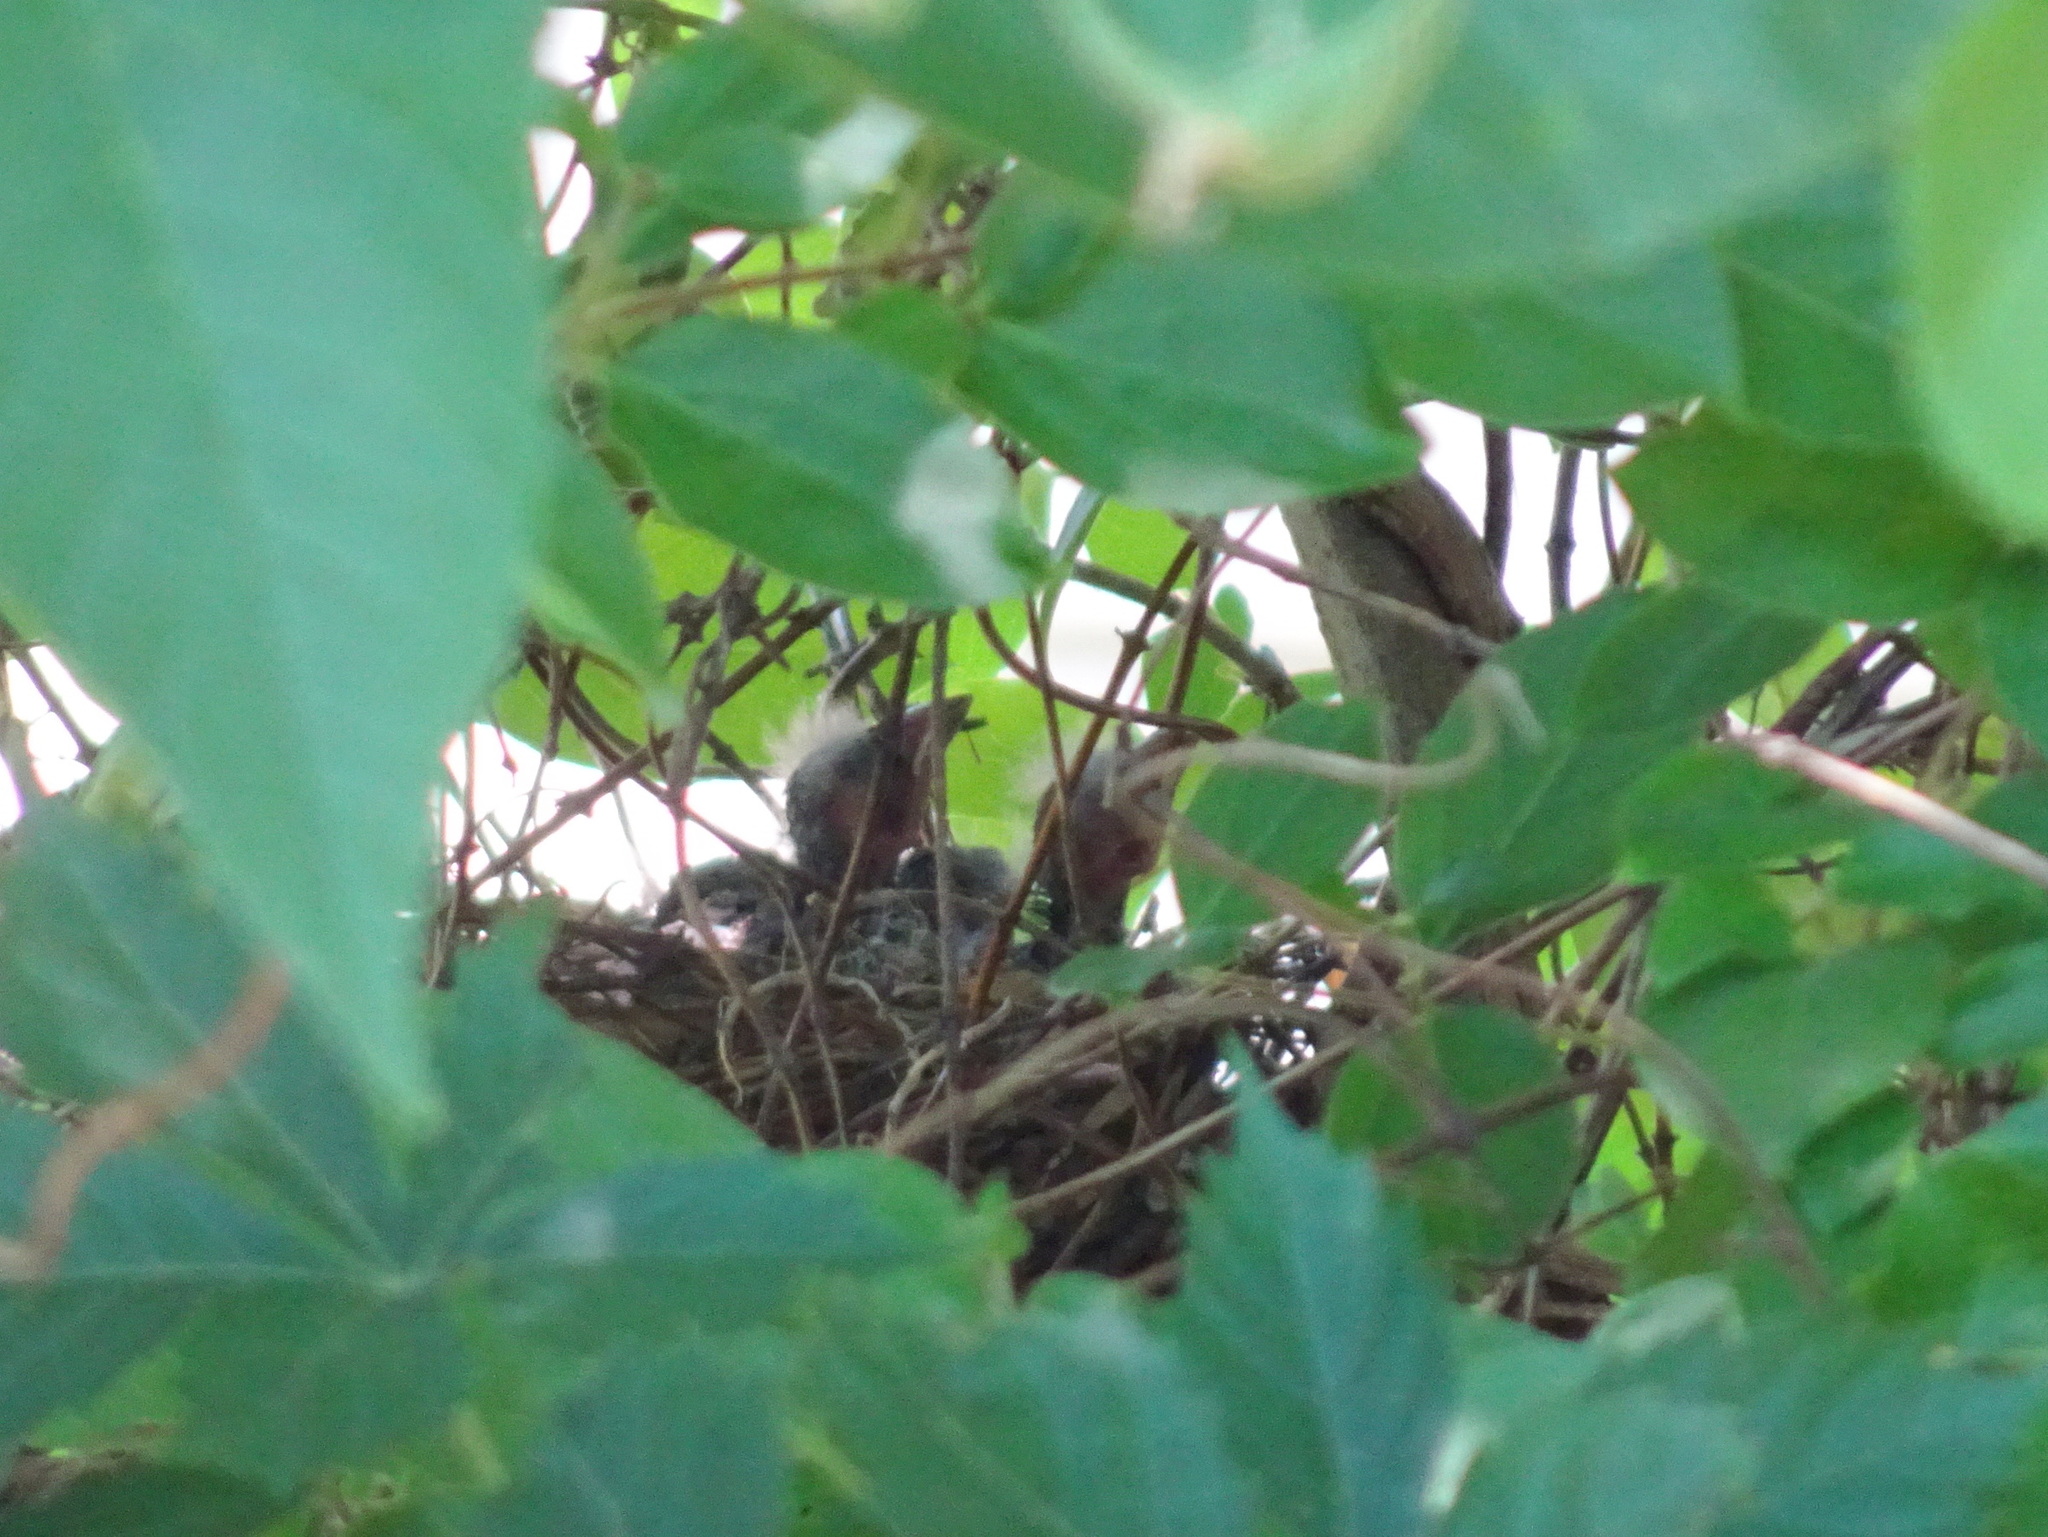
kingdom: Animalia
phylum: Chordata
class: Aves
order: Passeriformes
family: Cardinalidae
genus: Cardinalis
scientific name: Cardinalis cardinalis
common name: Northern cardinal
